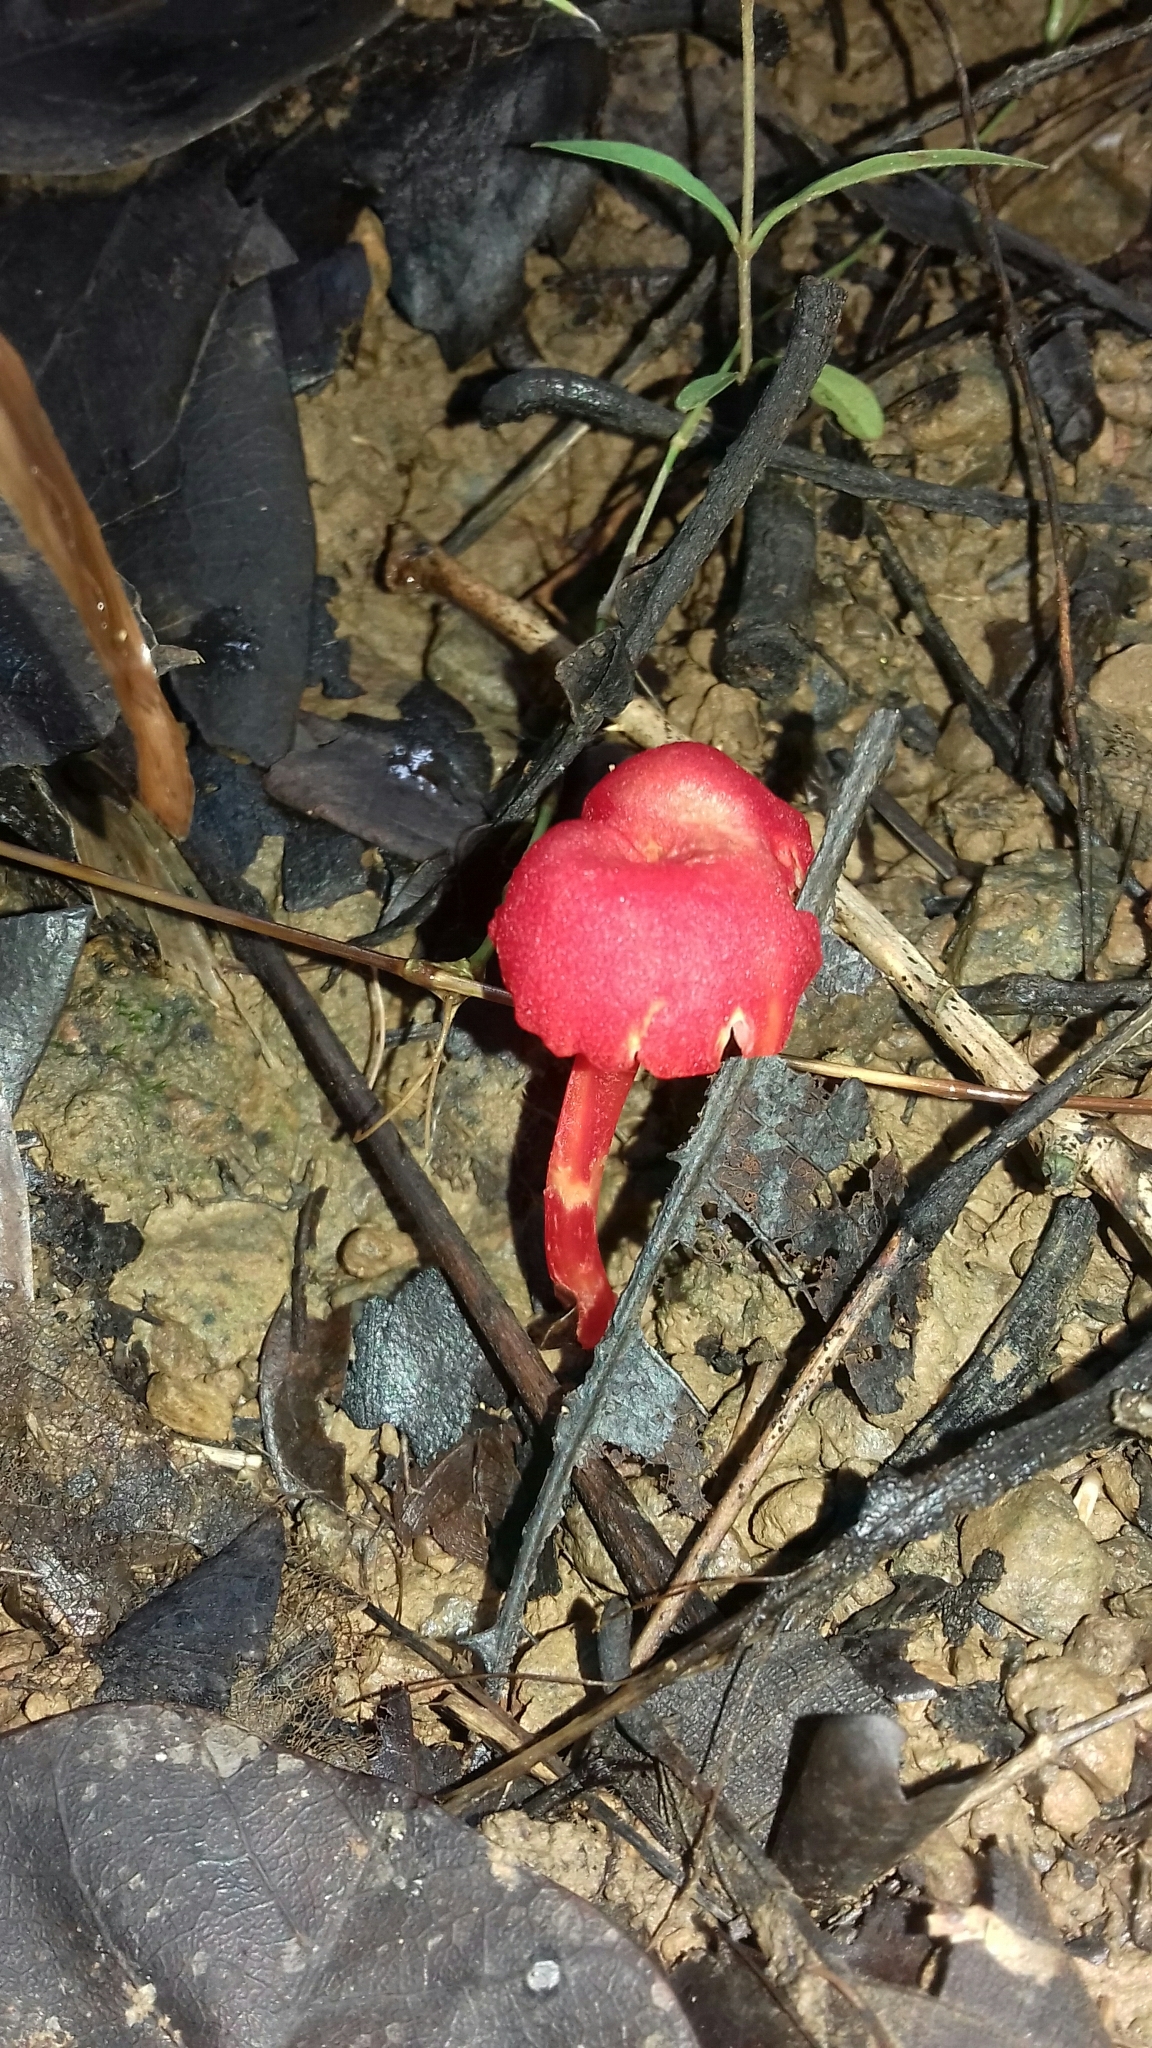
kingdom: Fungi
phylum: Basidiomycota
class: Agaricomycetes
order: Agaricales
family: Hygrophoraceae
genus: Hygrocybe
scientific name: Hygrocybe miniata
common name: Vermilion waxcap
